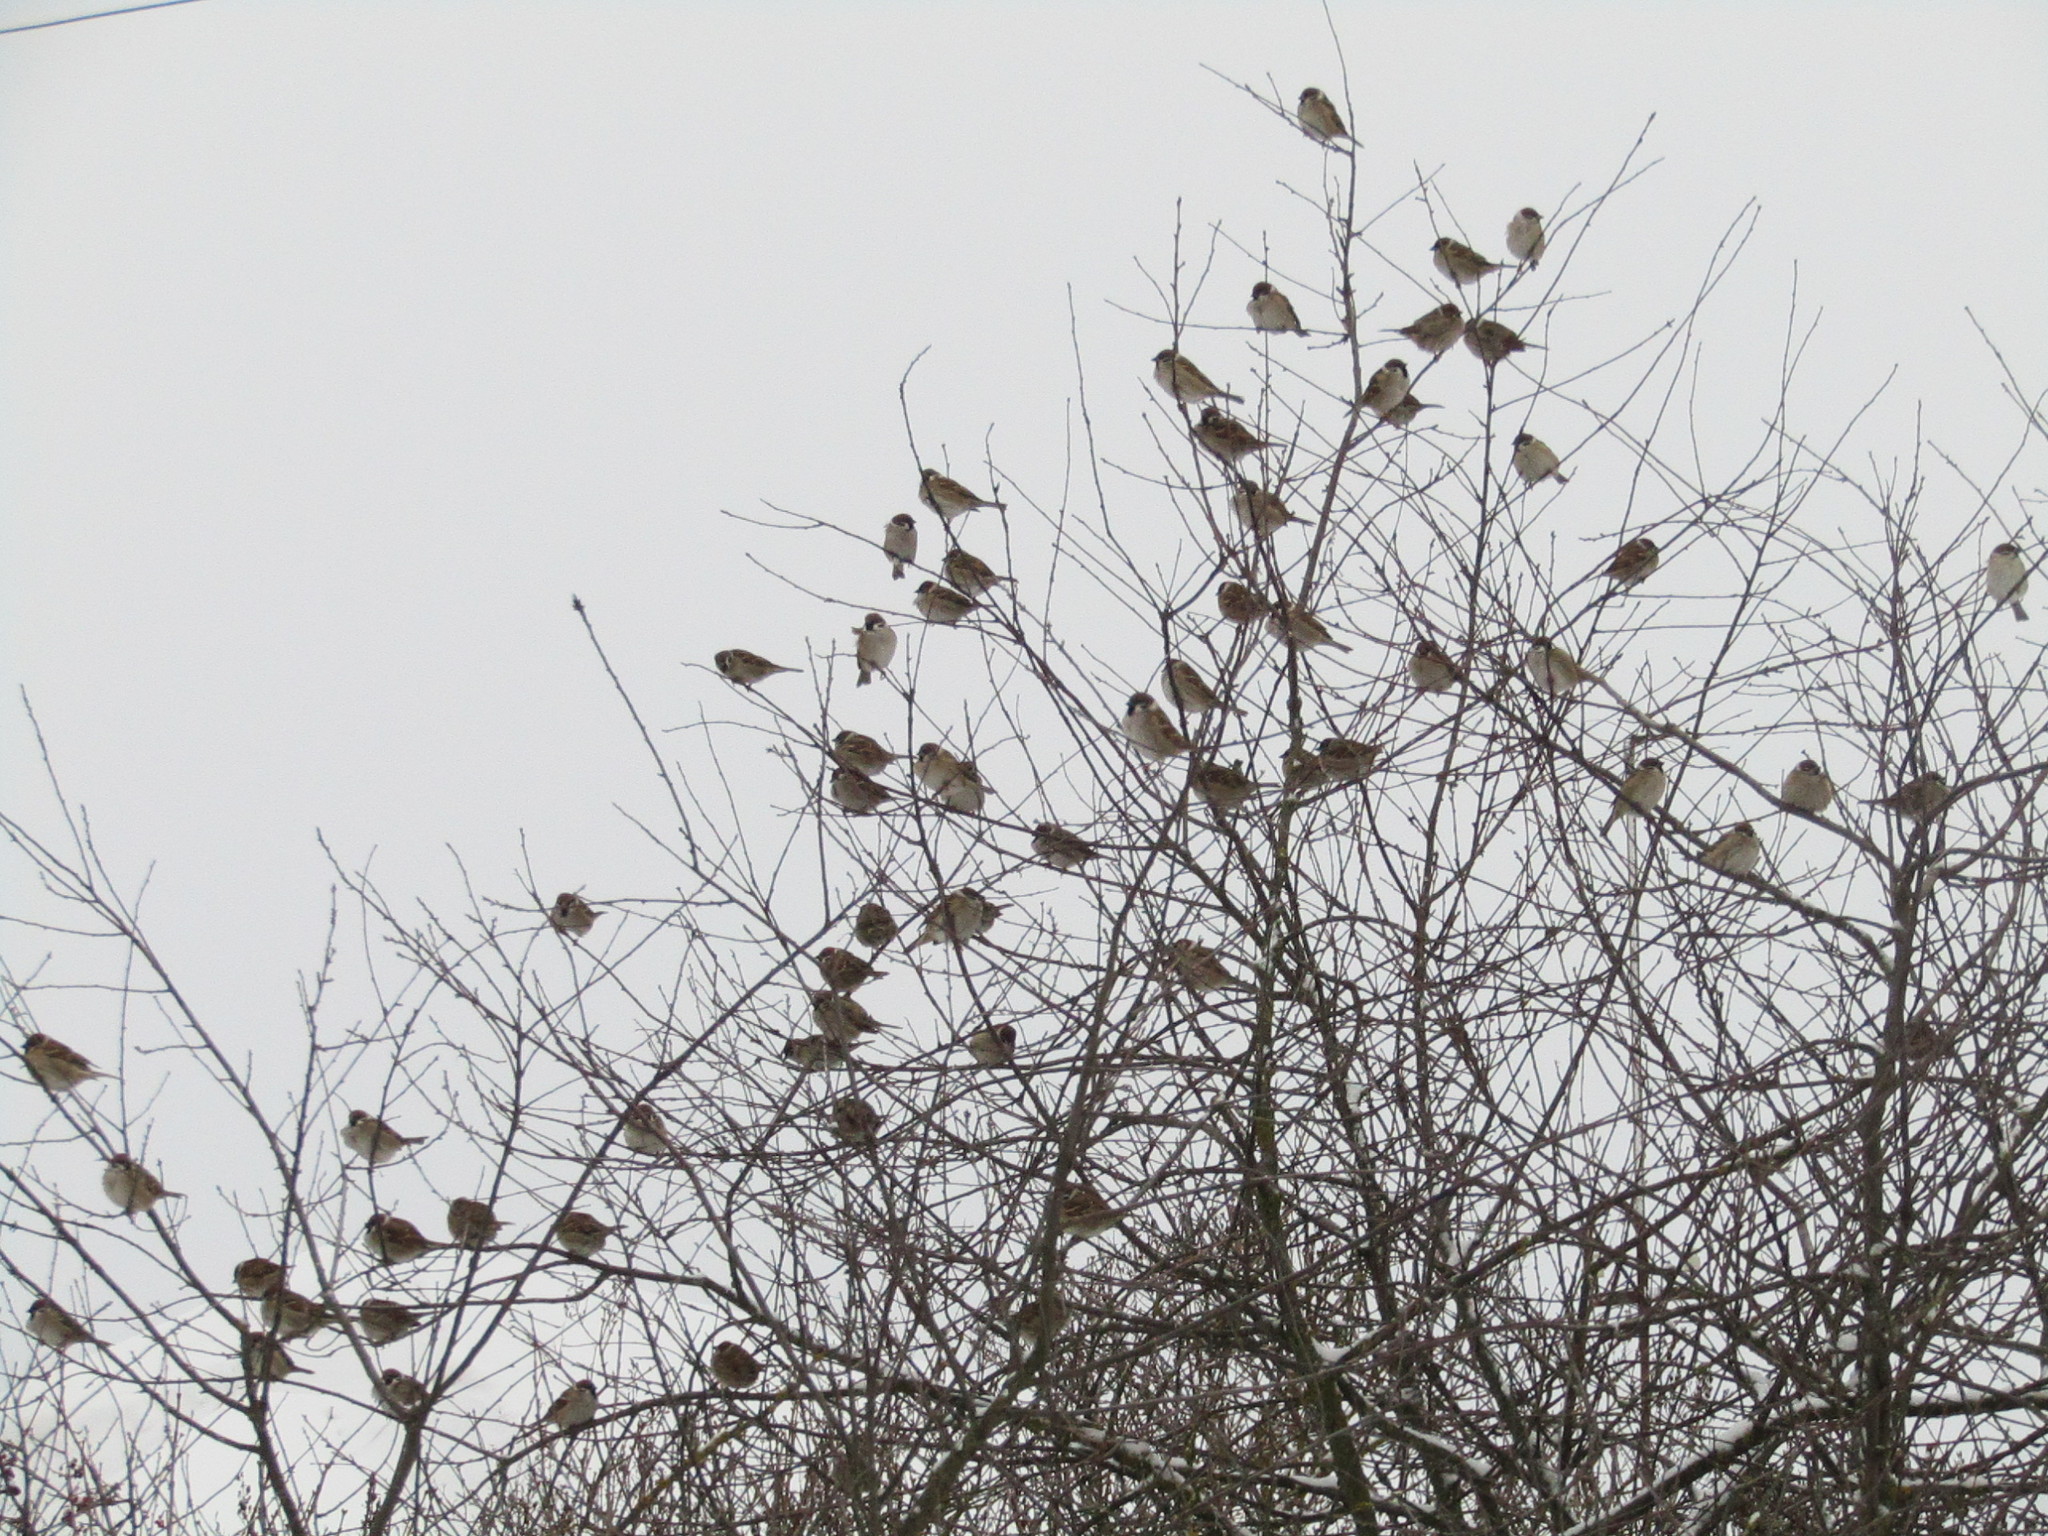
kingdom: Animalia
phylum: Chordata
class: Aves
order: Passeriformes
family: Passeridae
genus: Passer
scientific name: Passer montanus
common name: Eurasian tree sparrow
